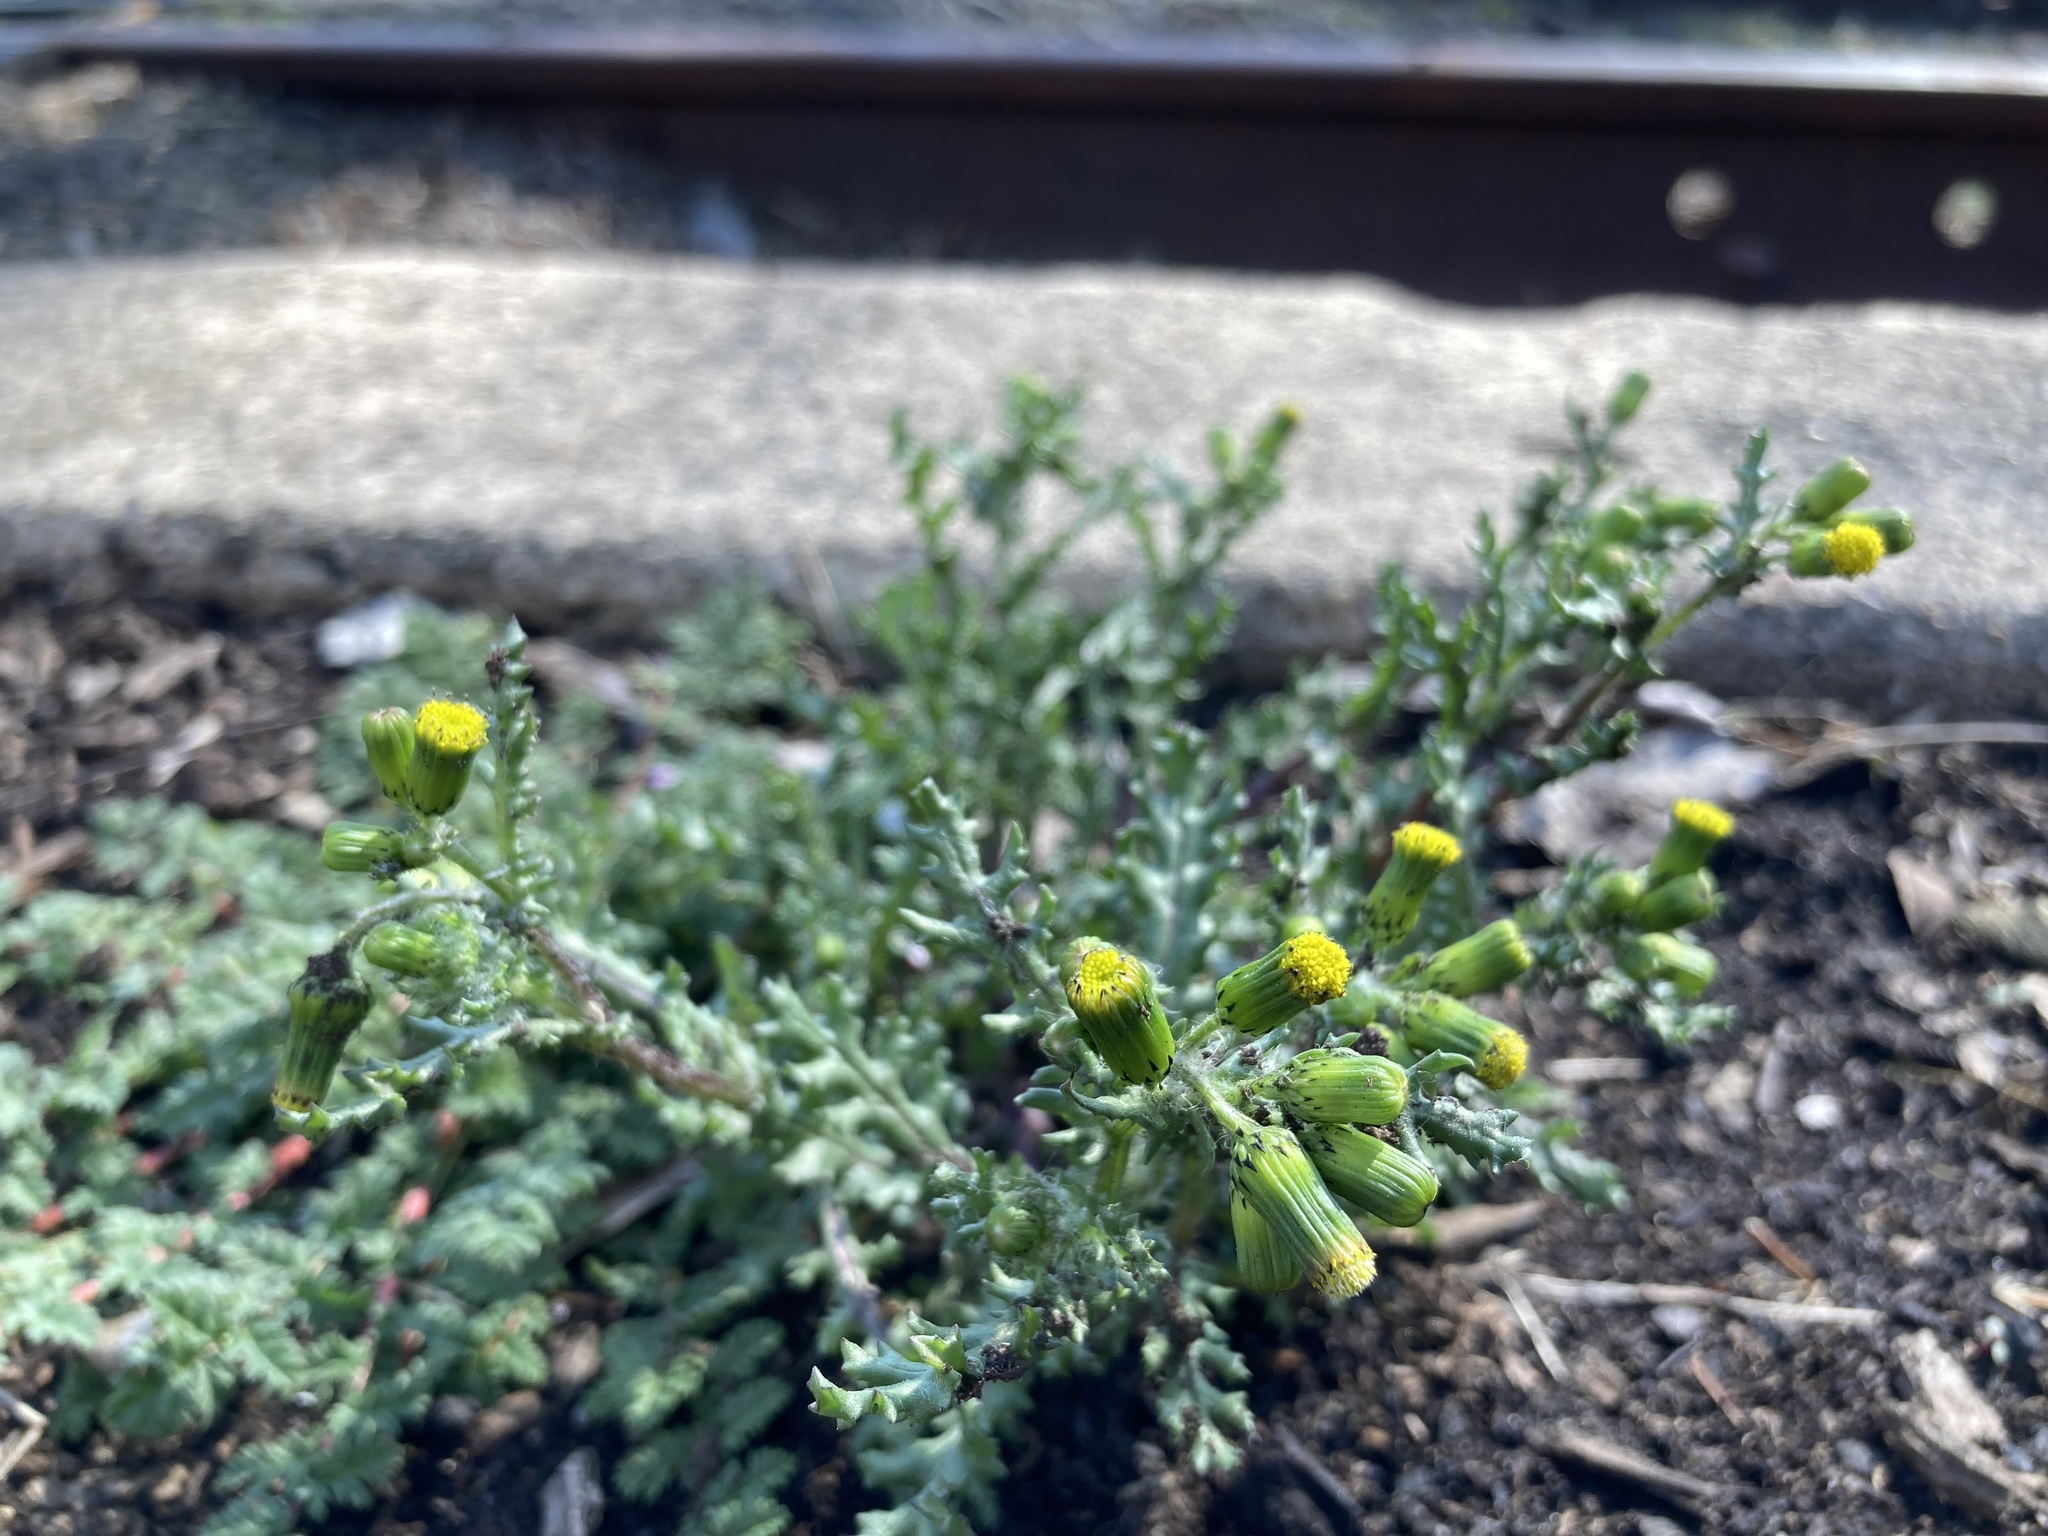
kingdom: Plantae
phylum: Tracheophyta
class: Magnoliopsida
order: Asterales
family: Asteraceae
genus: Senecio
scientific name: Senecio vulgaris
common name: Old-man-in-the-spring
